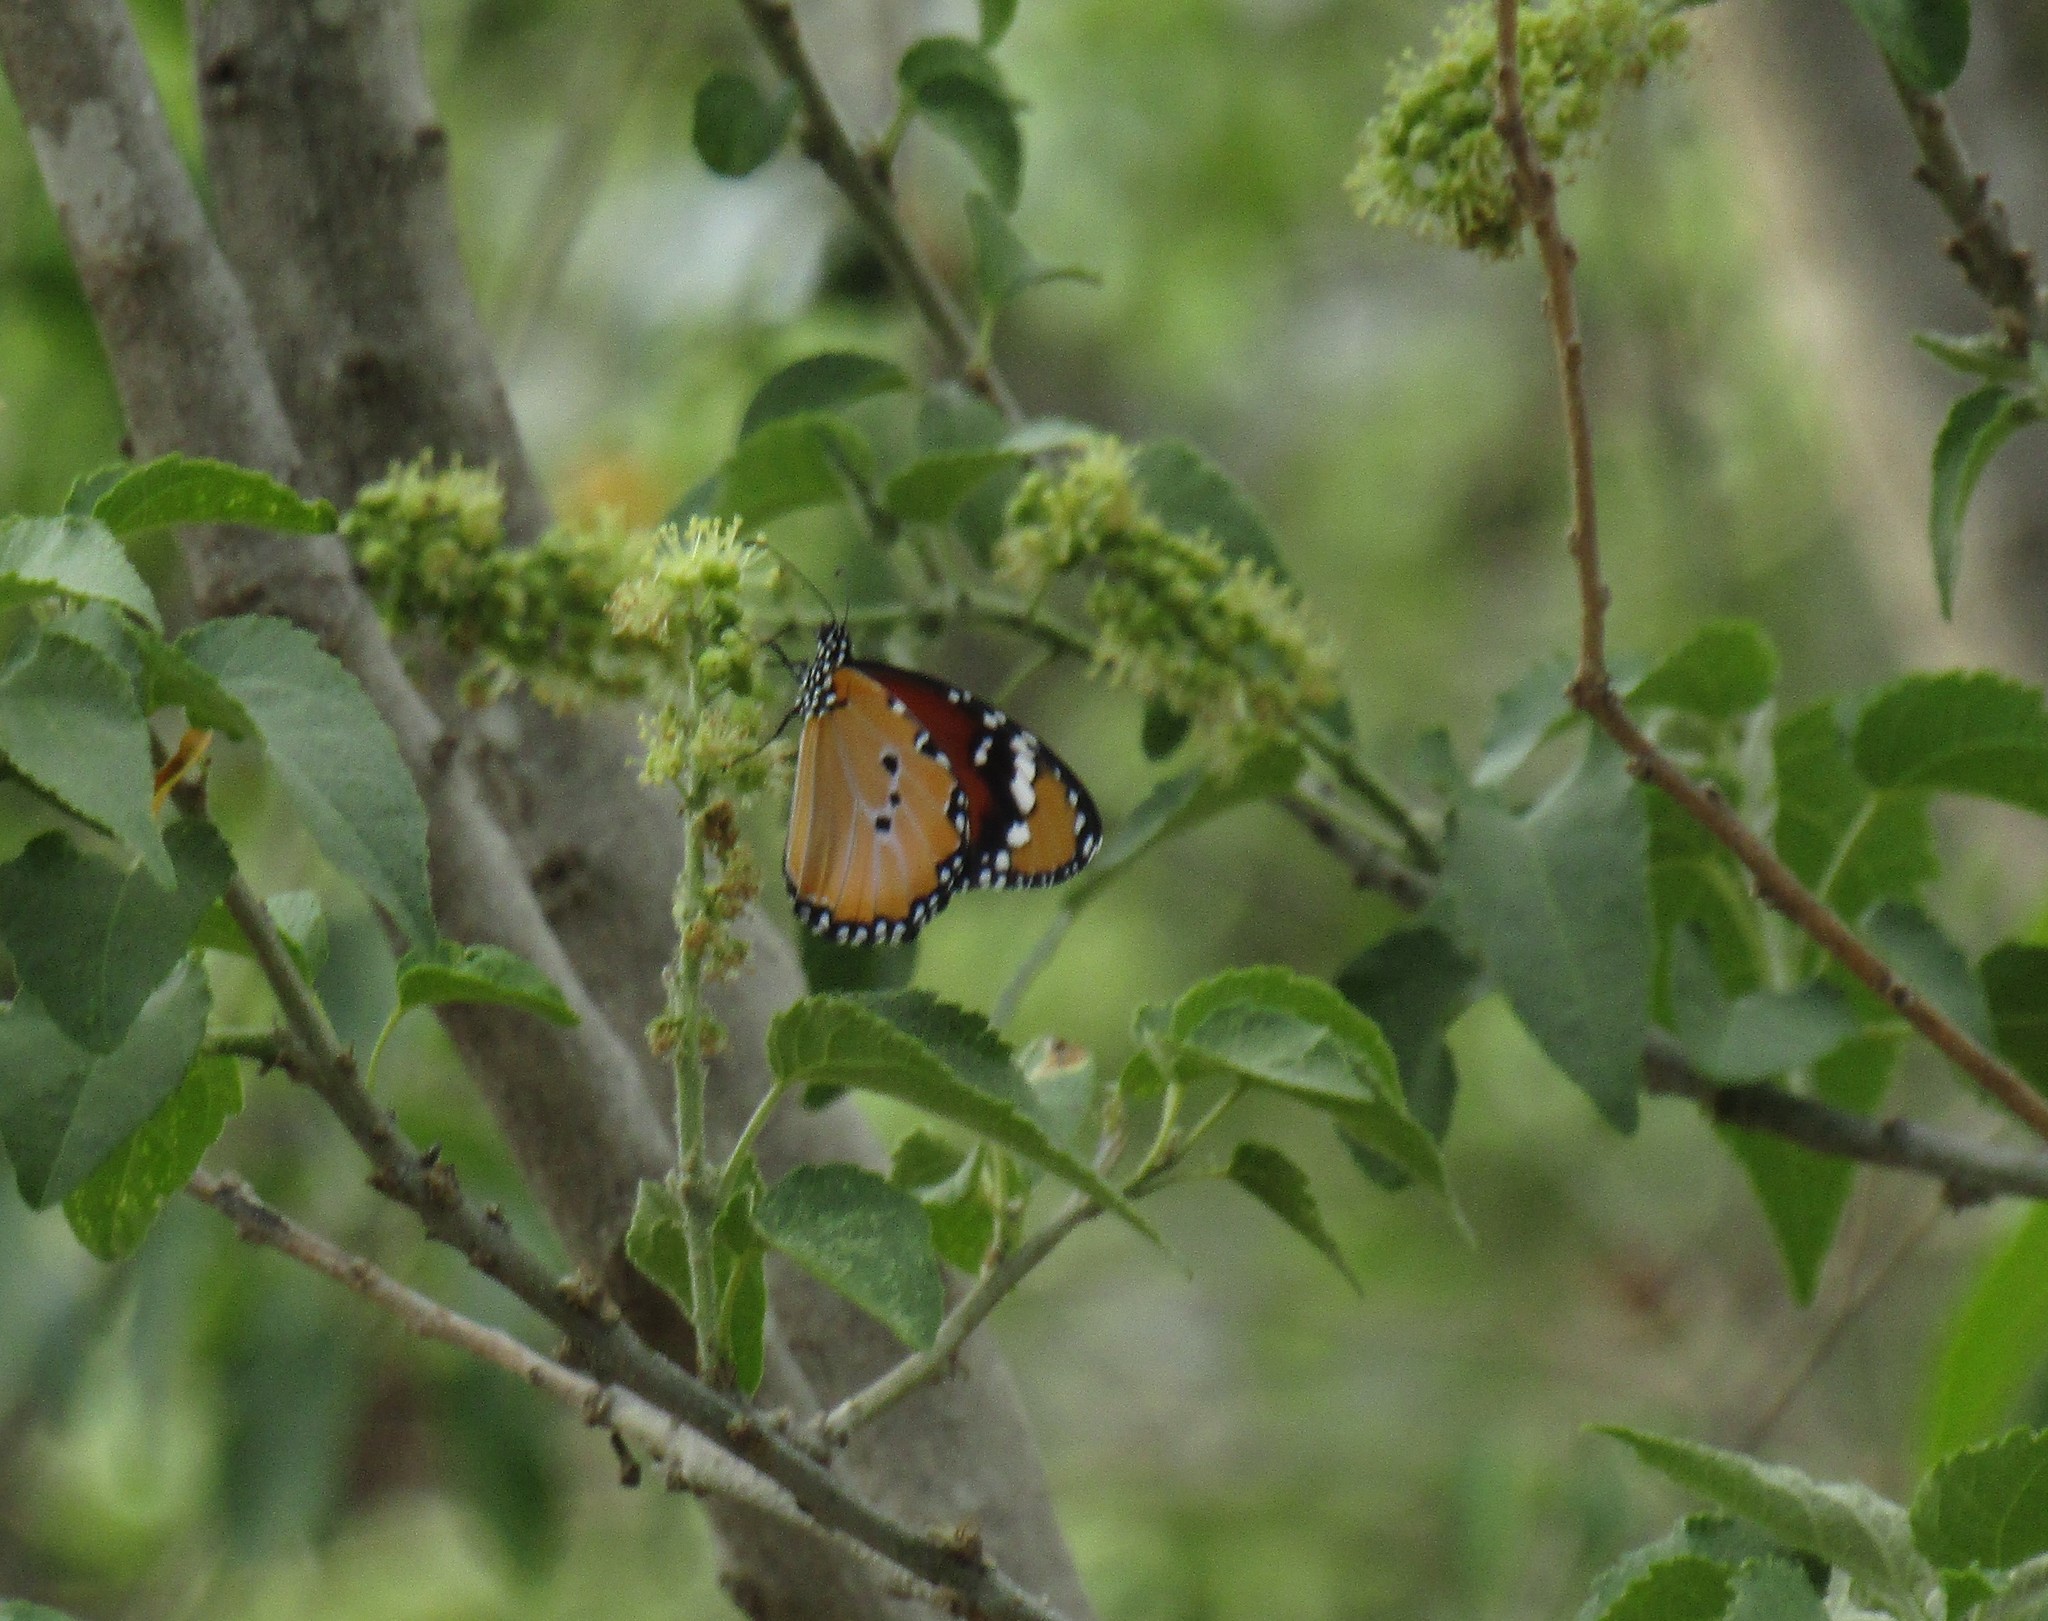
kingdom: Animalia
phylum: Arthropoda
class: Insecta
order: Lepidoptera
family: Nymphalidae
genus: Danaus
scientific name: Danaus chrysippus
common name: Plain tiger
